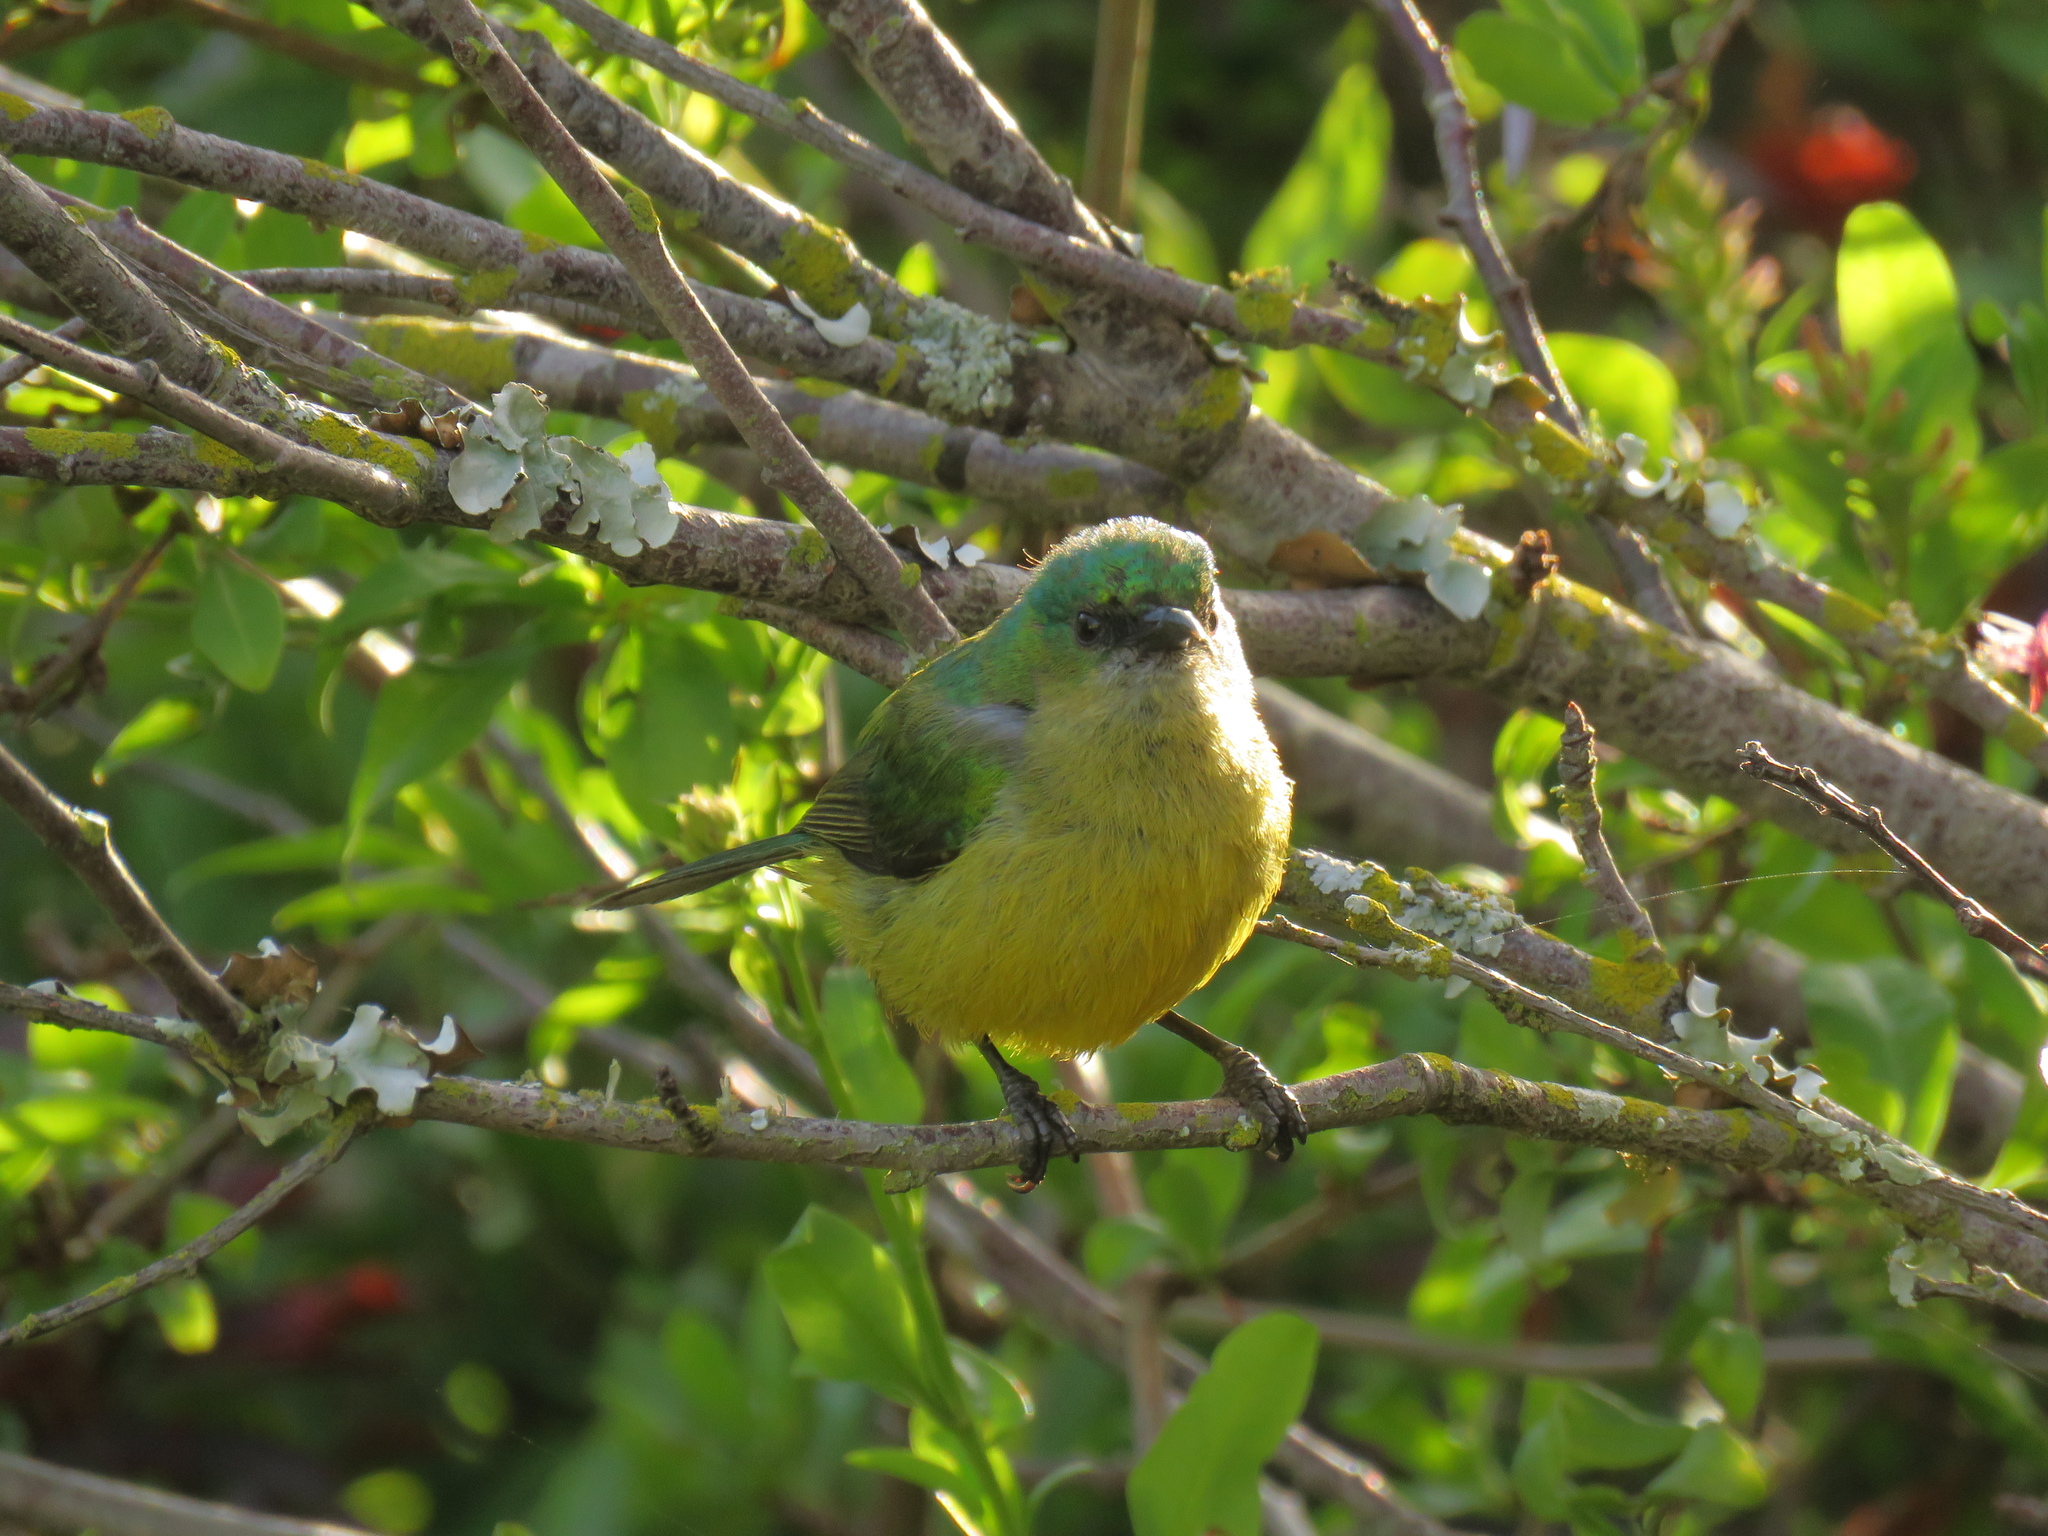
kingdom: Animalia
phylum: Chordata
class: Aves
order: Passeriformes
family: Nectariniidae
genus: Hedydipna
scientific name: Hedydipna collaris
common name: Collared sunbird
